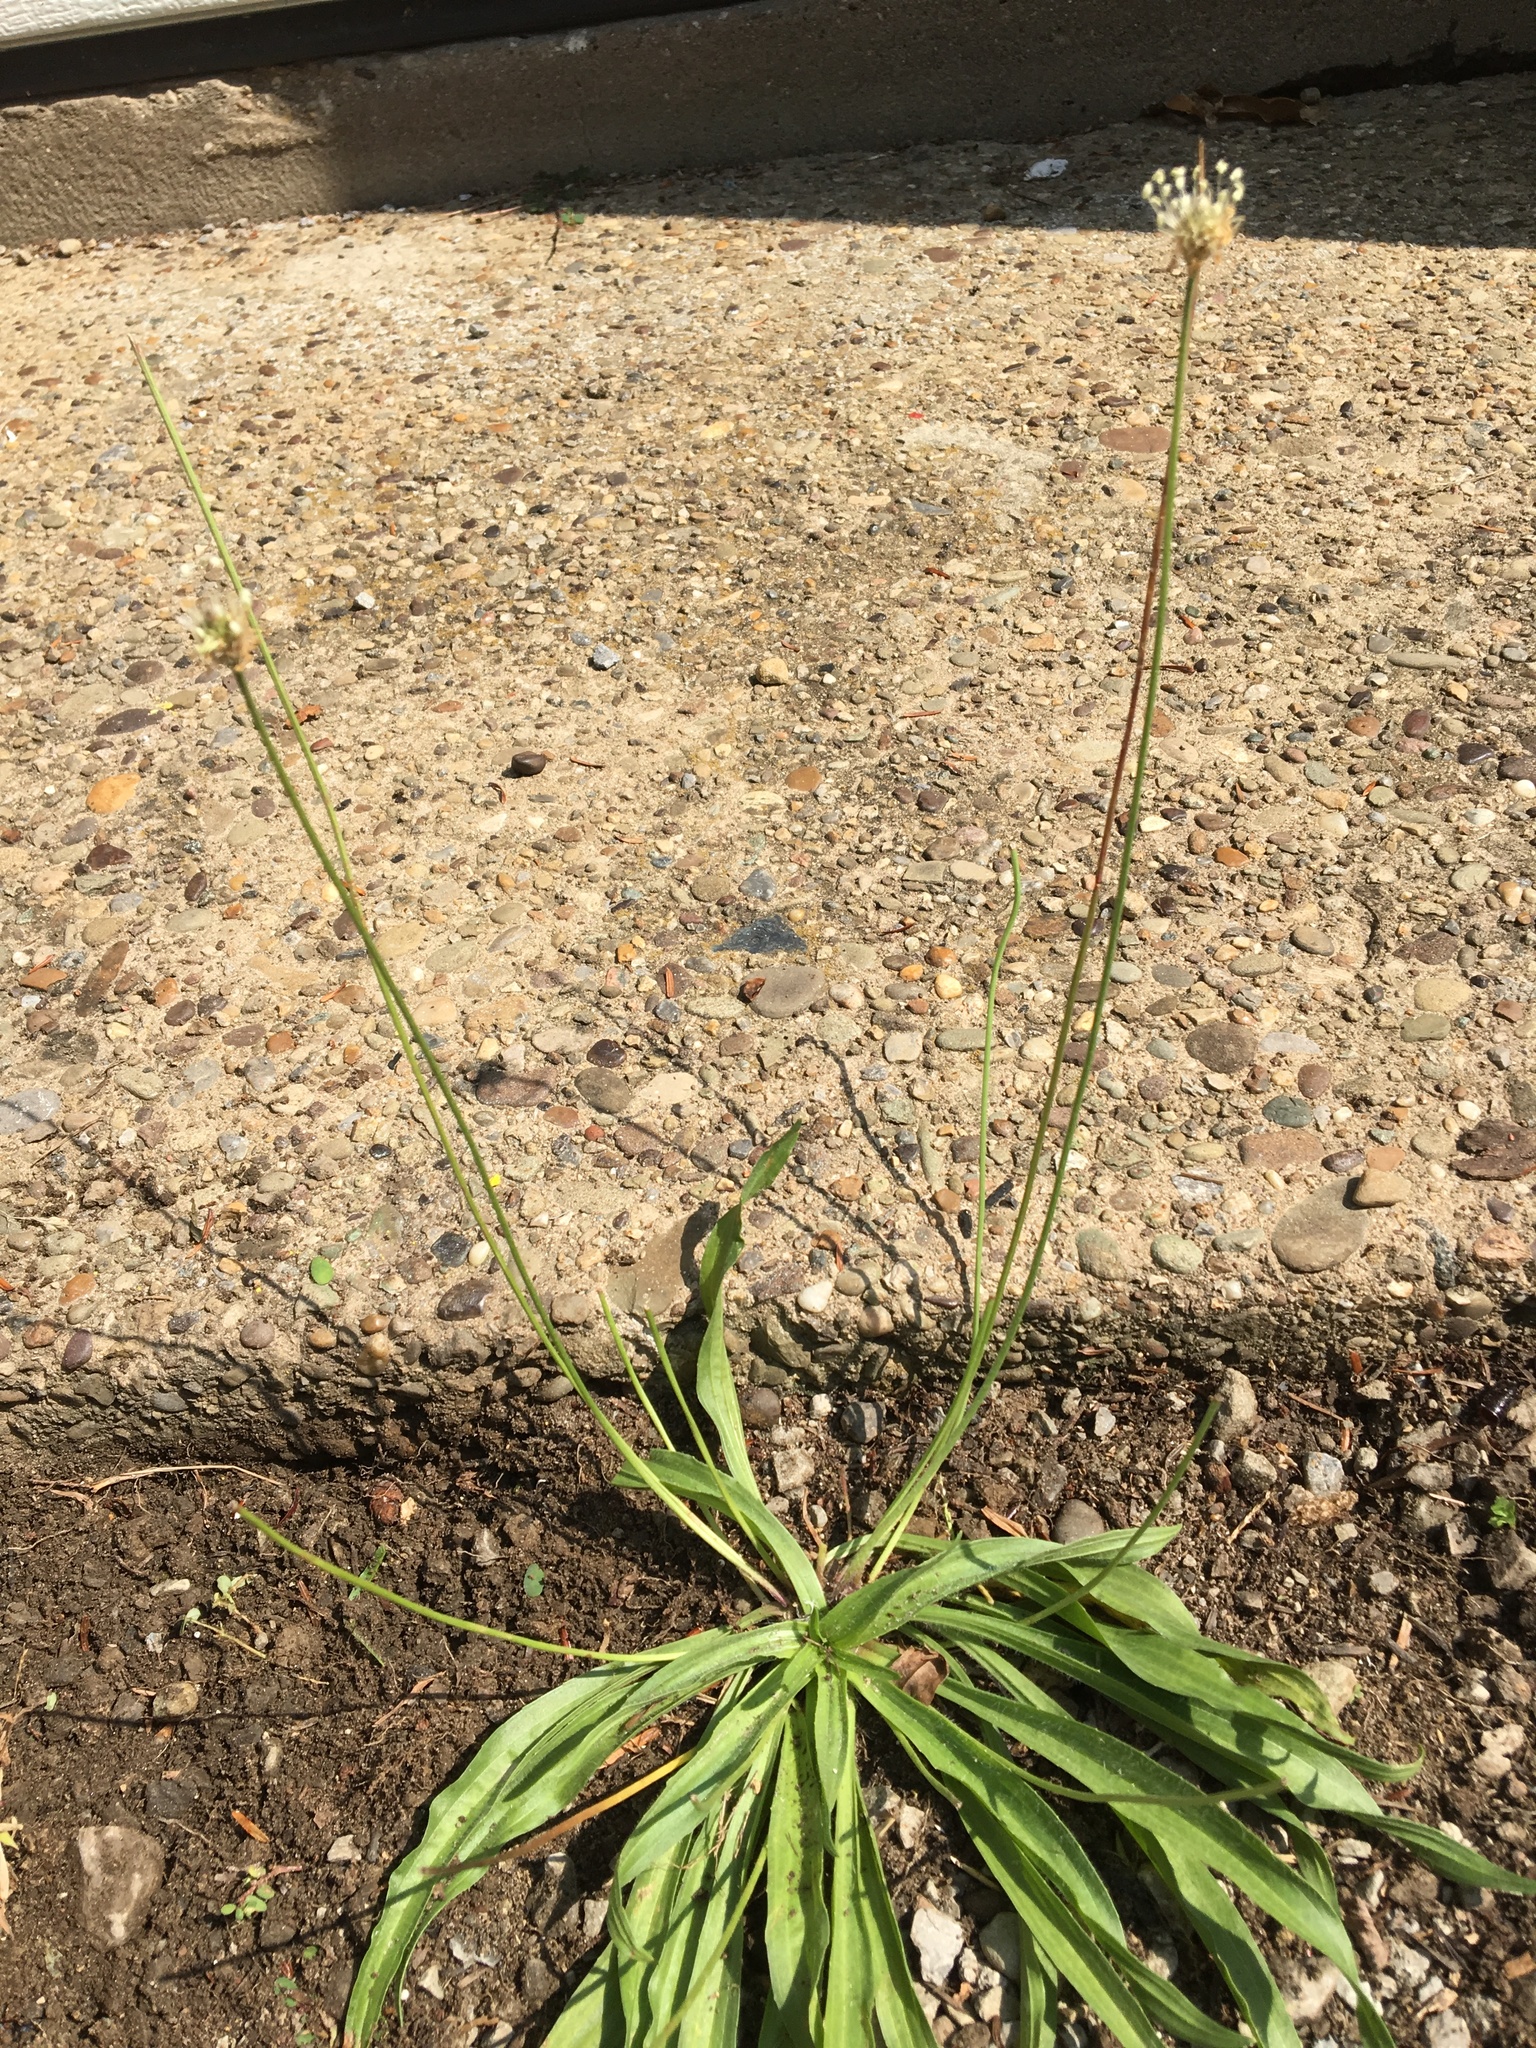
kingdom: Plantae
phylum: Tracheophyta
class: Magnoliopsida
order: Lamiales
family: Plantaginaceae
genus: Plantago
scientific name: Plantago lanceolata
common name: Ribwort plantain
